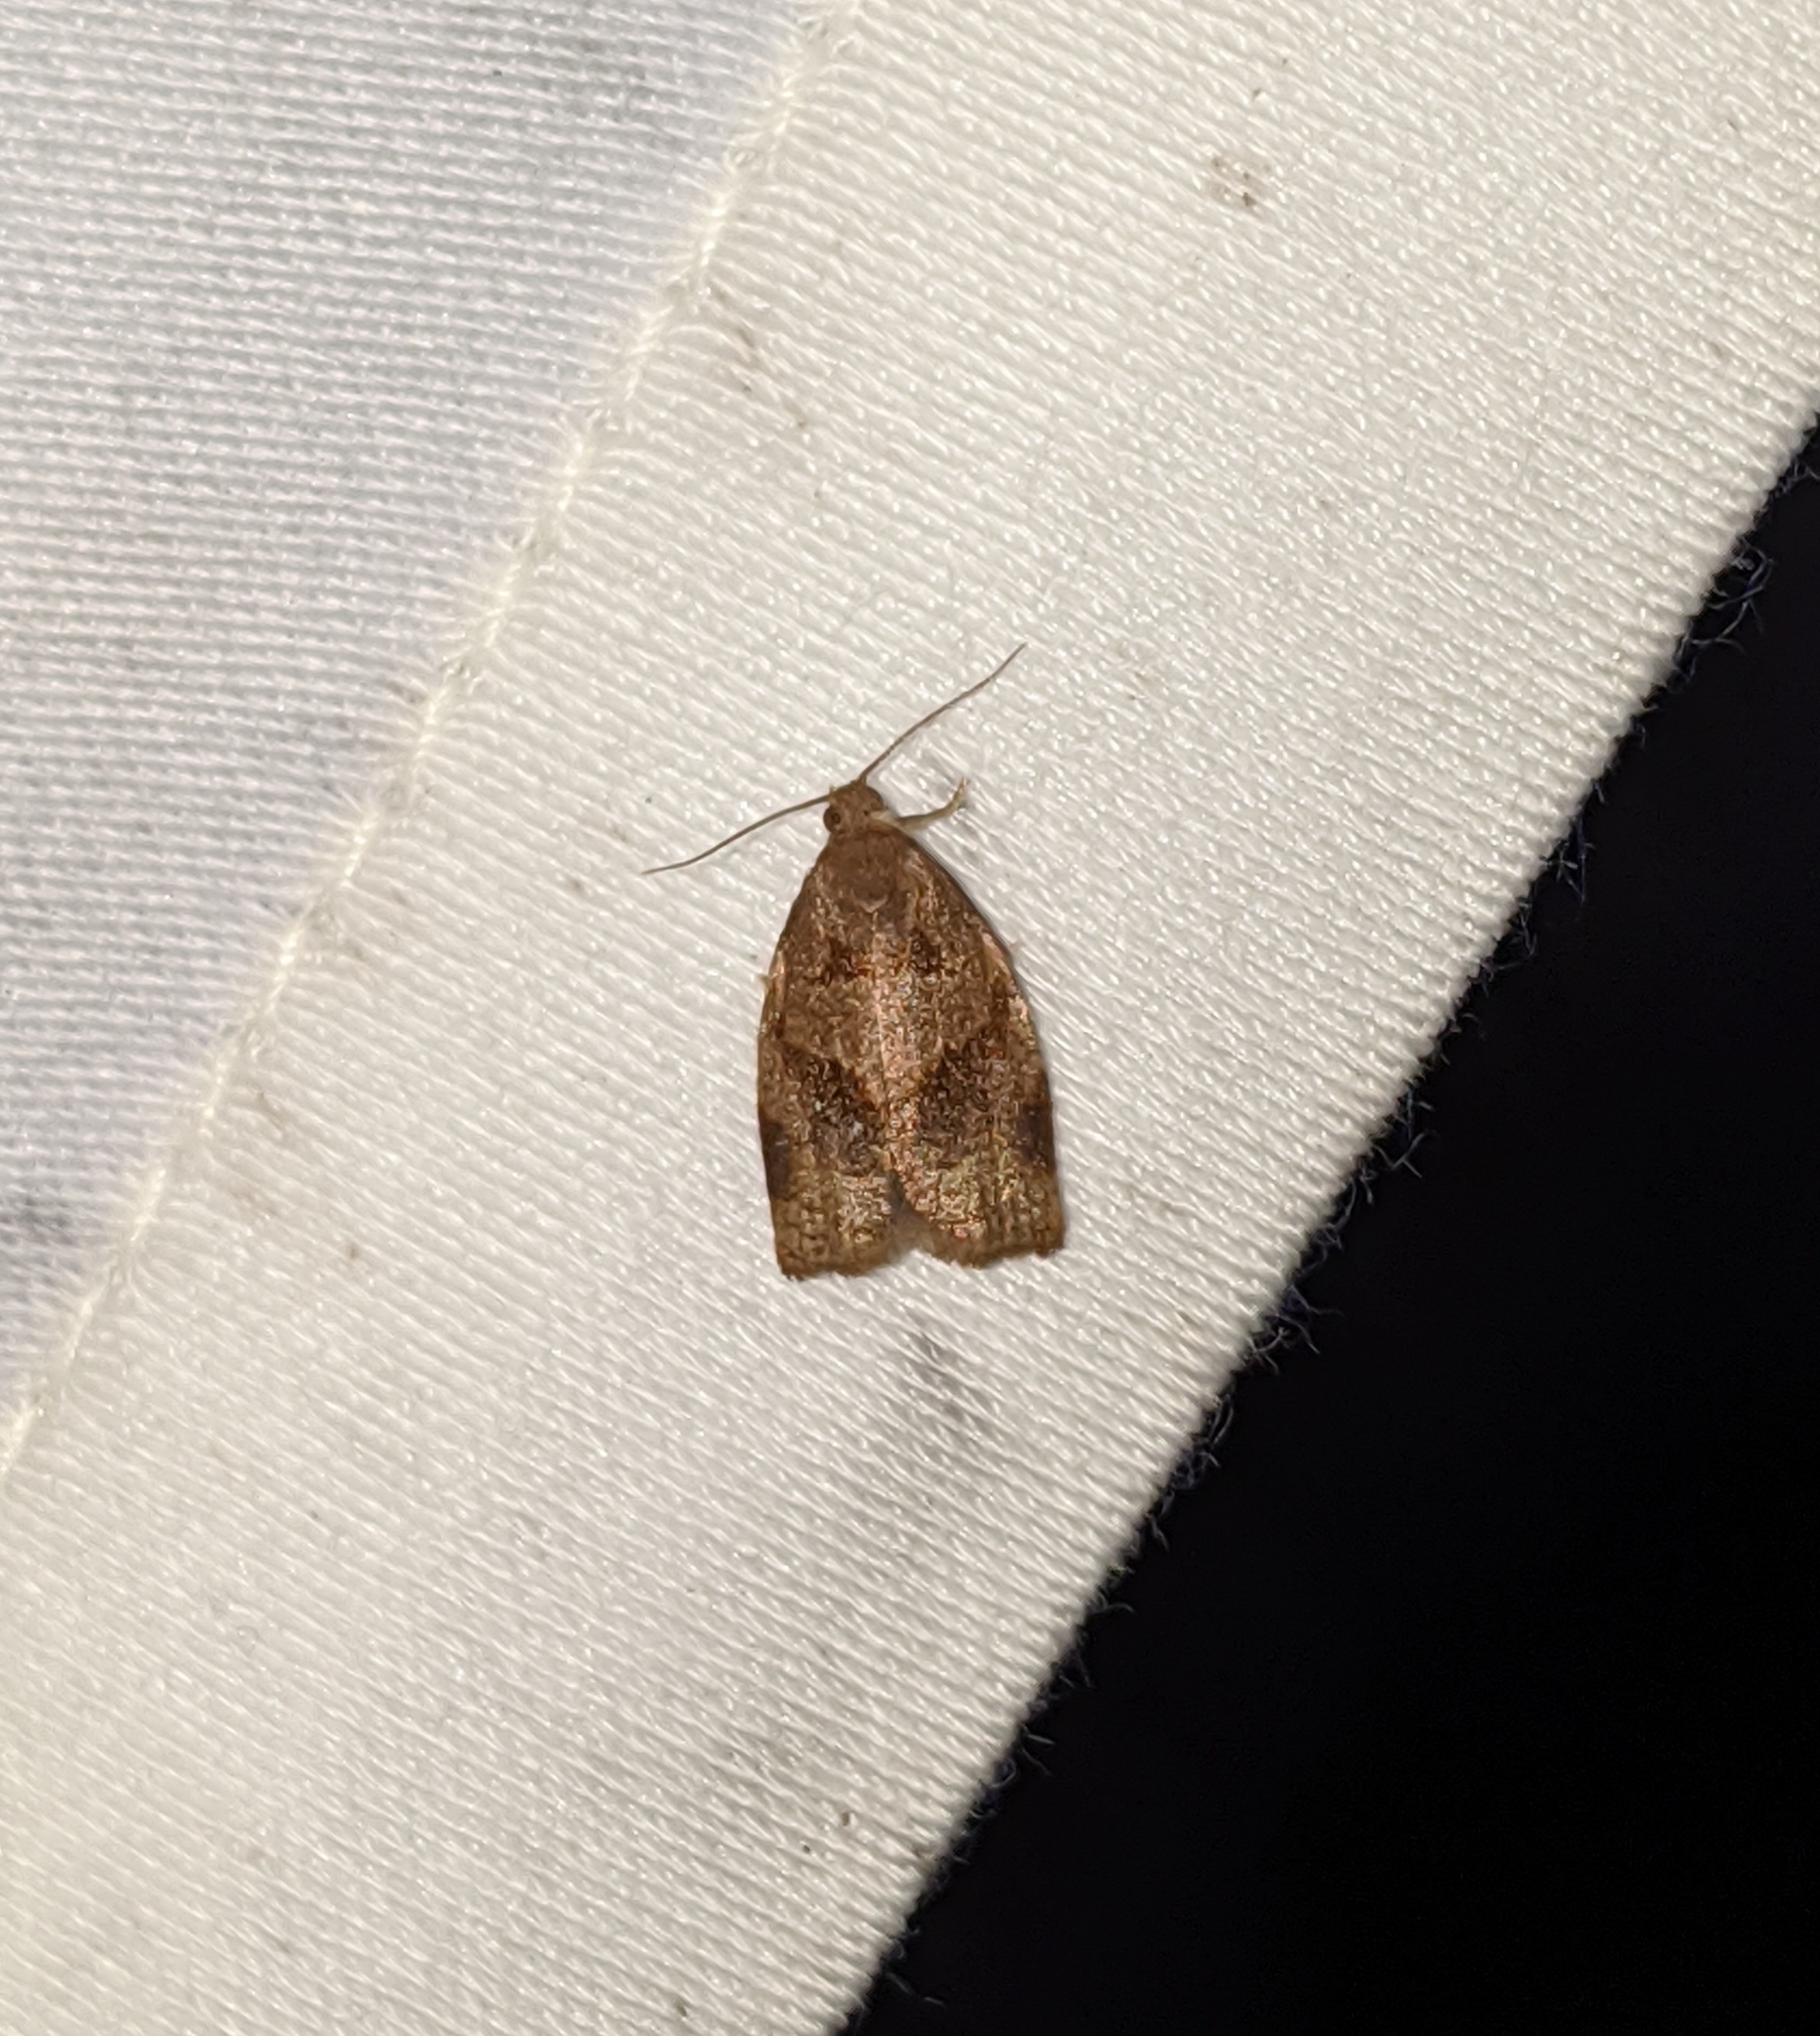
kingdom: Animalia
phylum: Arthropoda
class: Insecta
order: Lepidoptera
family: Tortricidae
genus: Archips
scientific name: Archips rosana
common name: Rose tortrix
